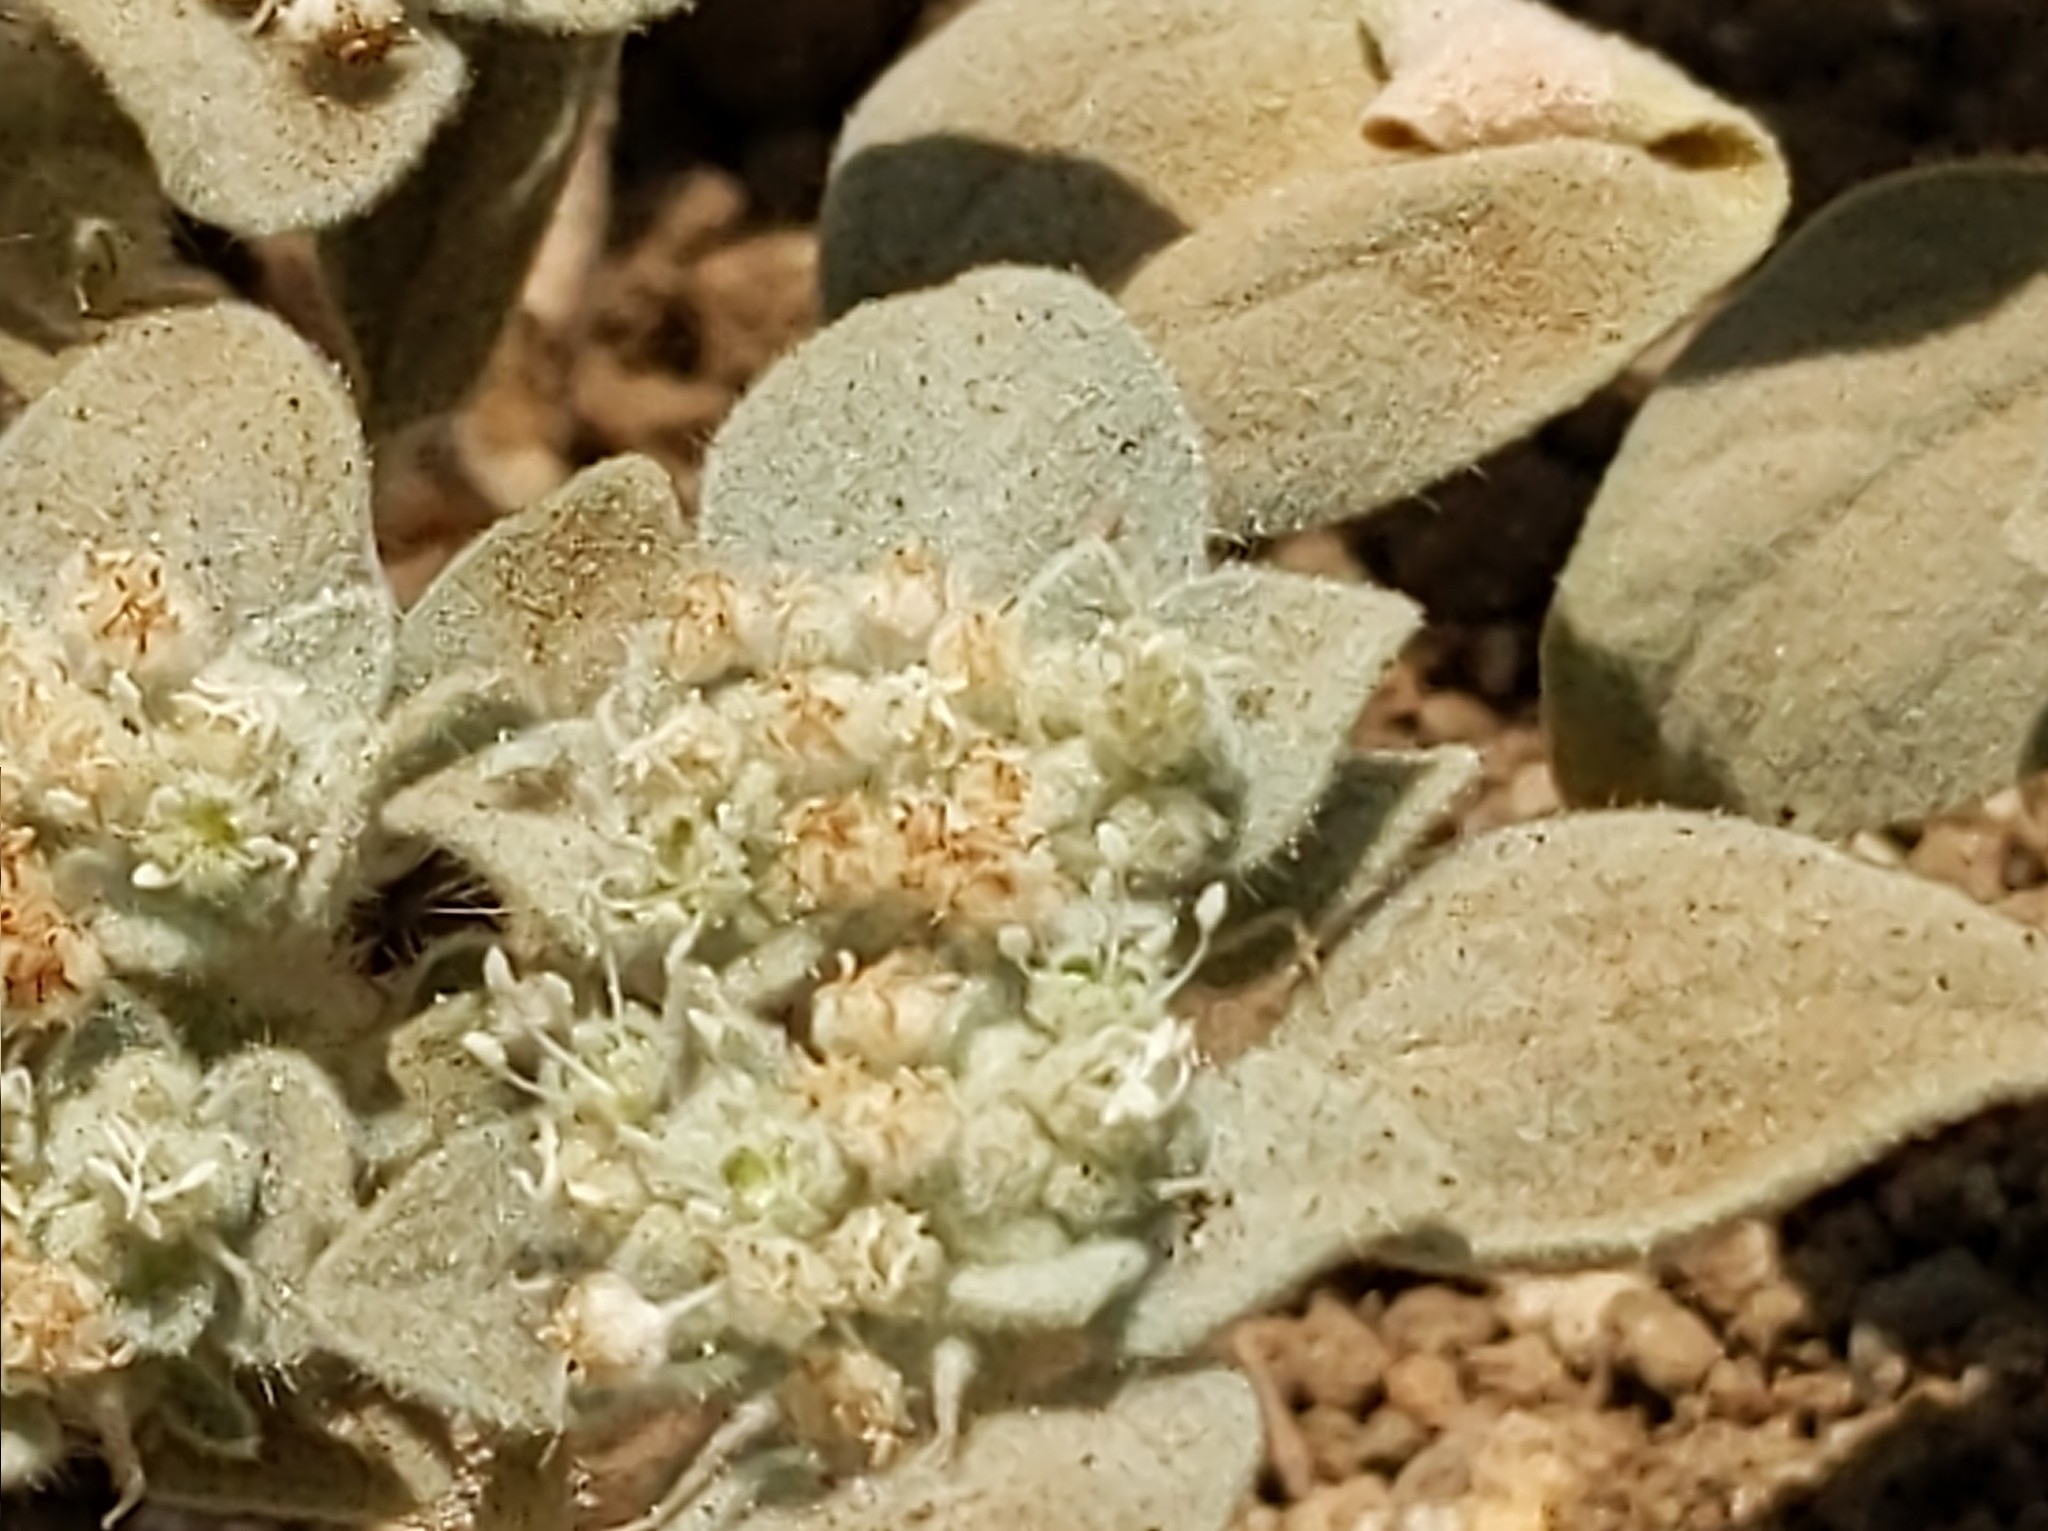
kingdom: Plantae
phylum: Tracheophyta
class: Magnoliopsida
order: Malpighiales
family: Euphorbiaceae
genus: Croton
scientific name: Croton setiger
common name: Dove weed
